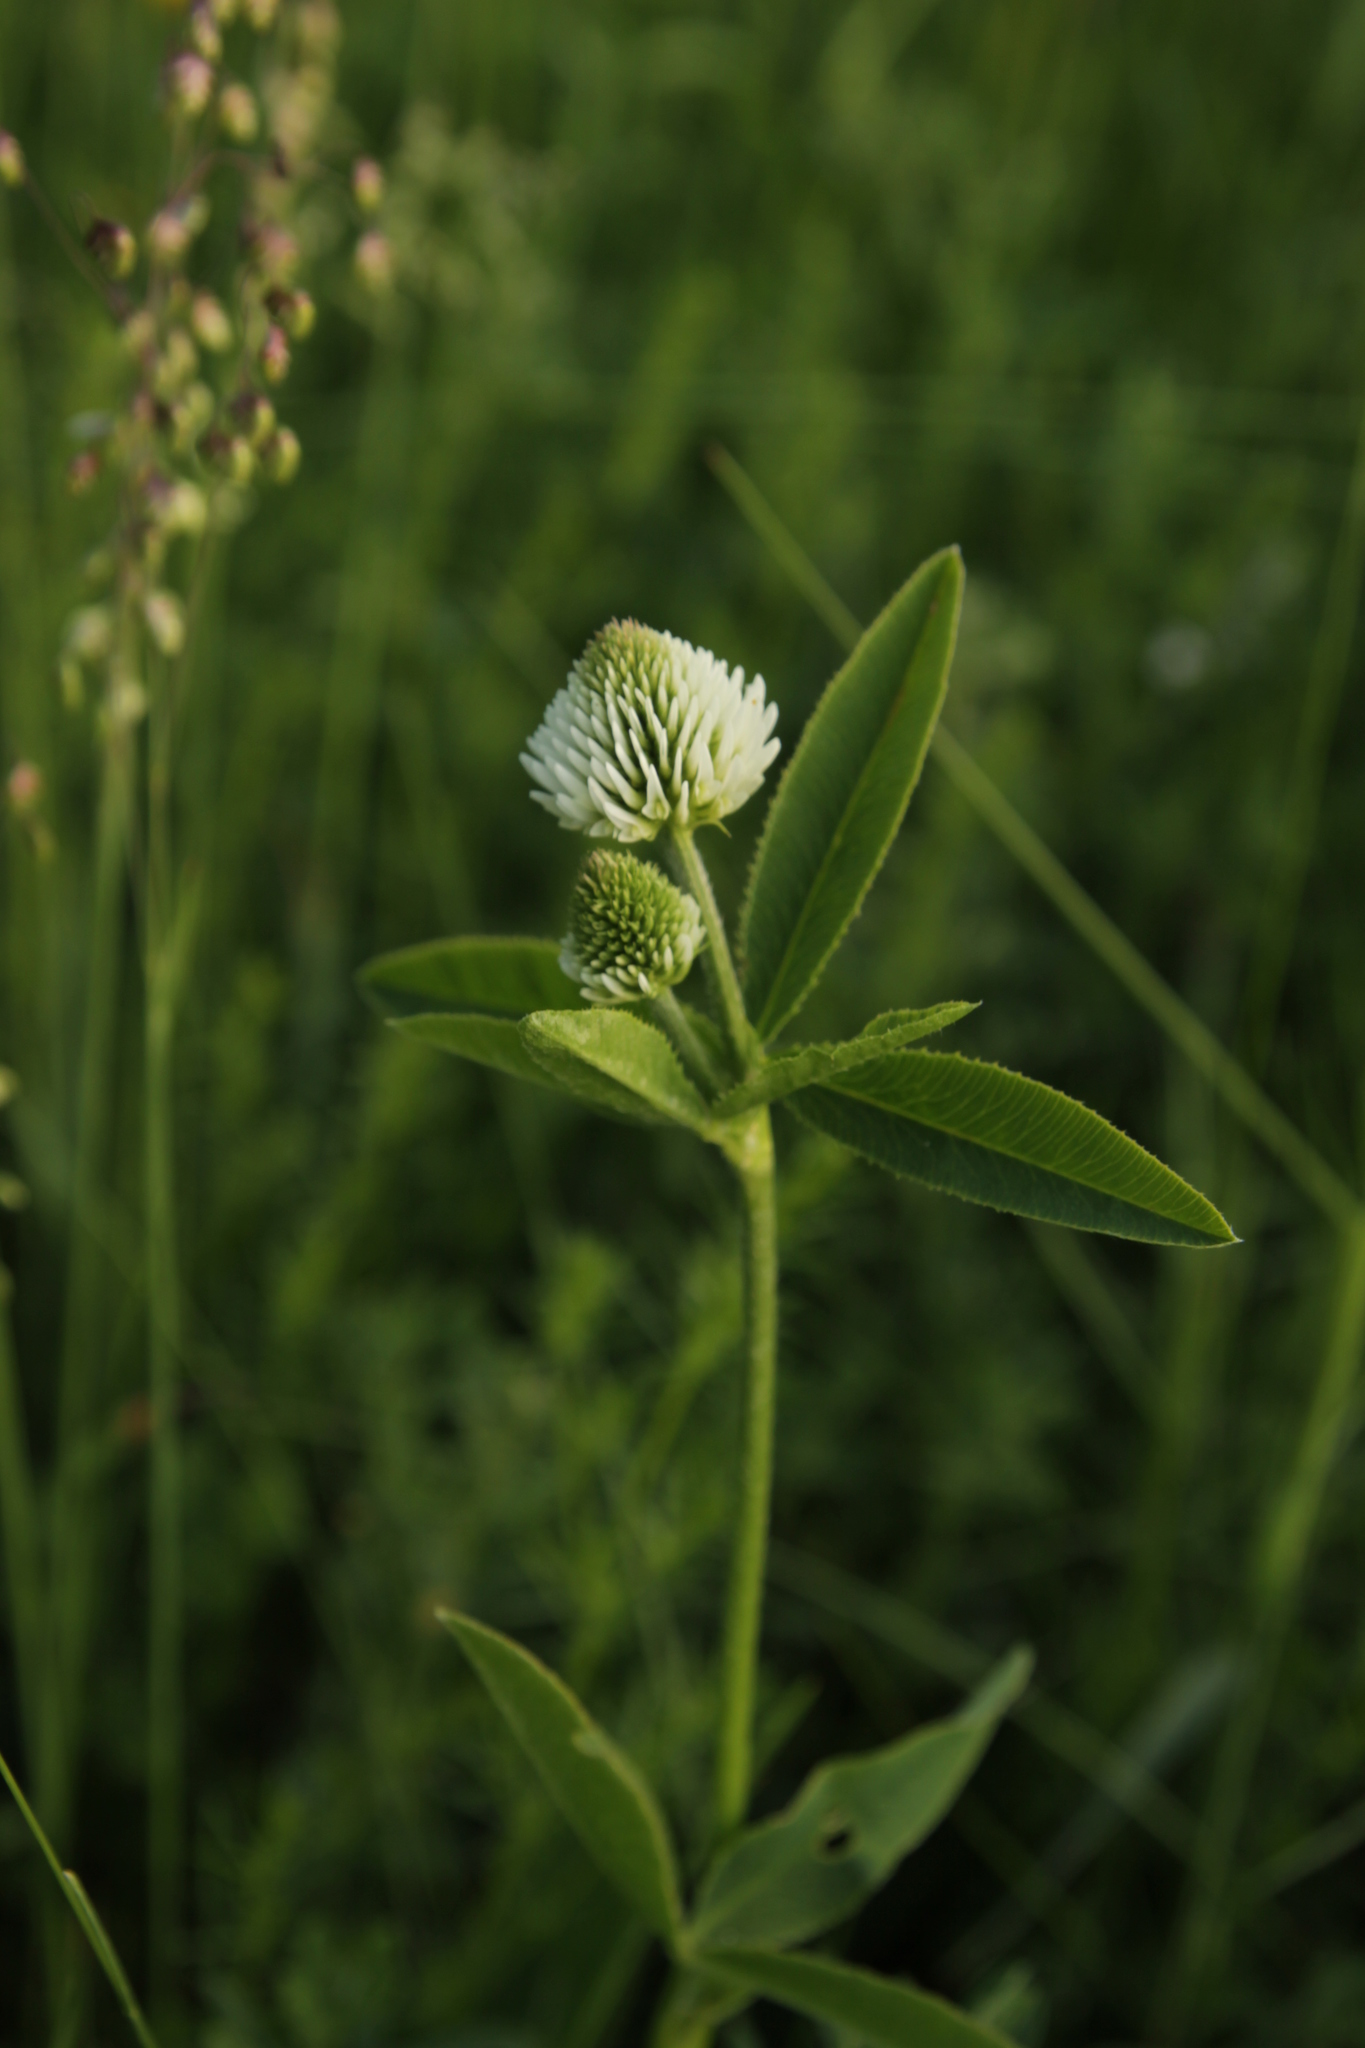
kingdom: Plantae
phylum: Tracheophyta
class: Magnoliopsida
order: Fabales
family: Fabaceae
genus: Trifolium
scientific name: Trifolium montanum
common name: Mountain clover
